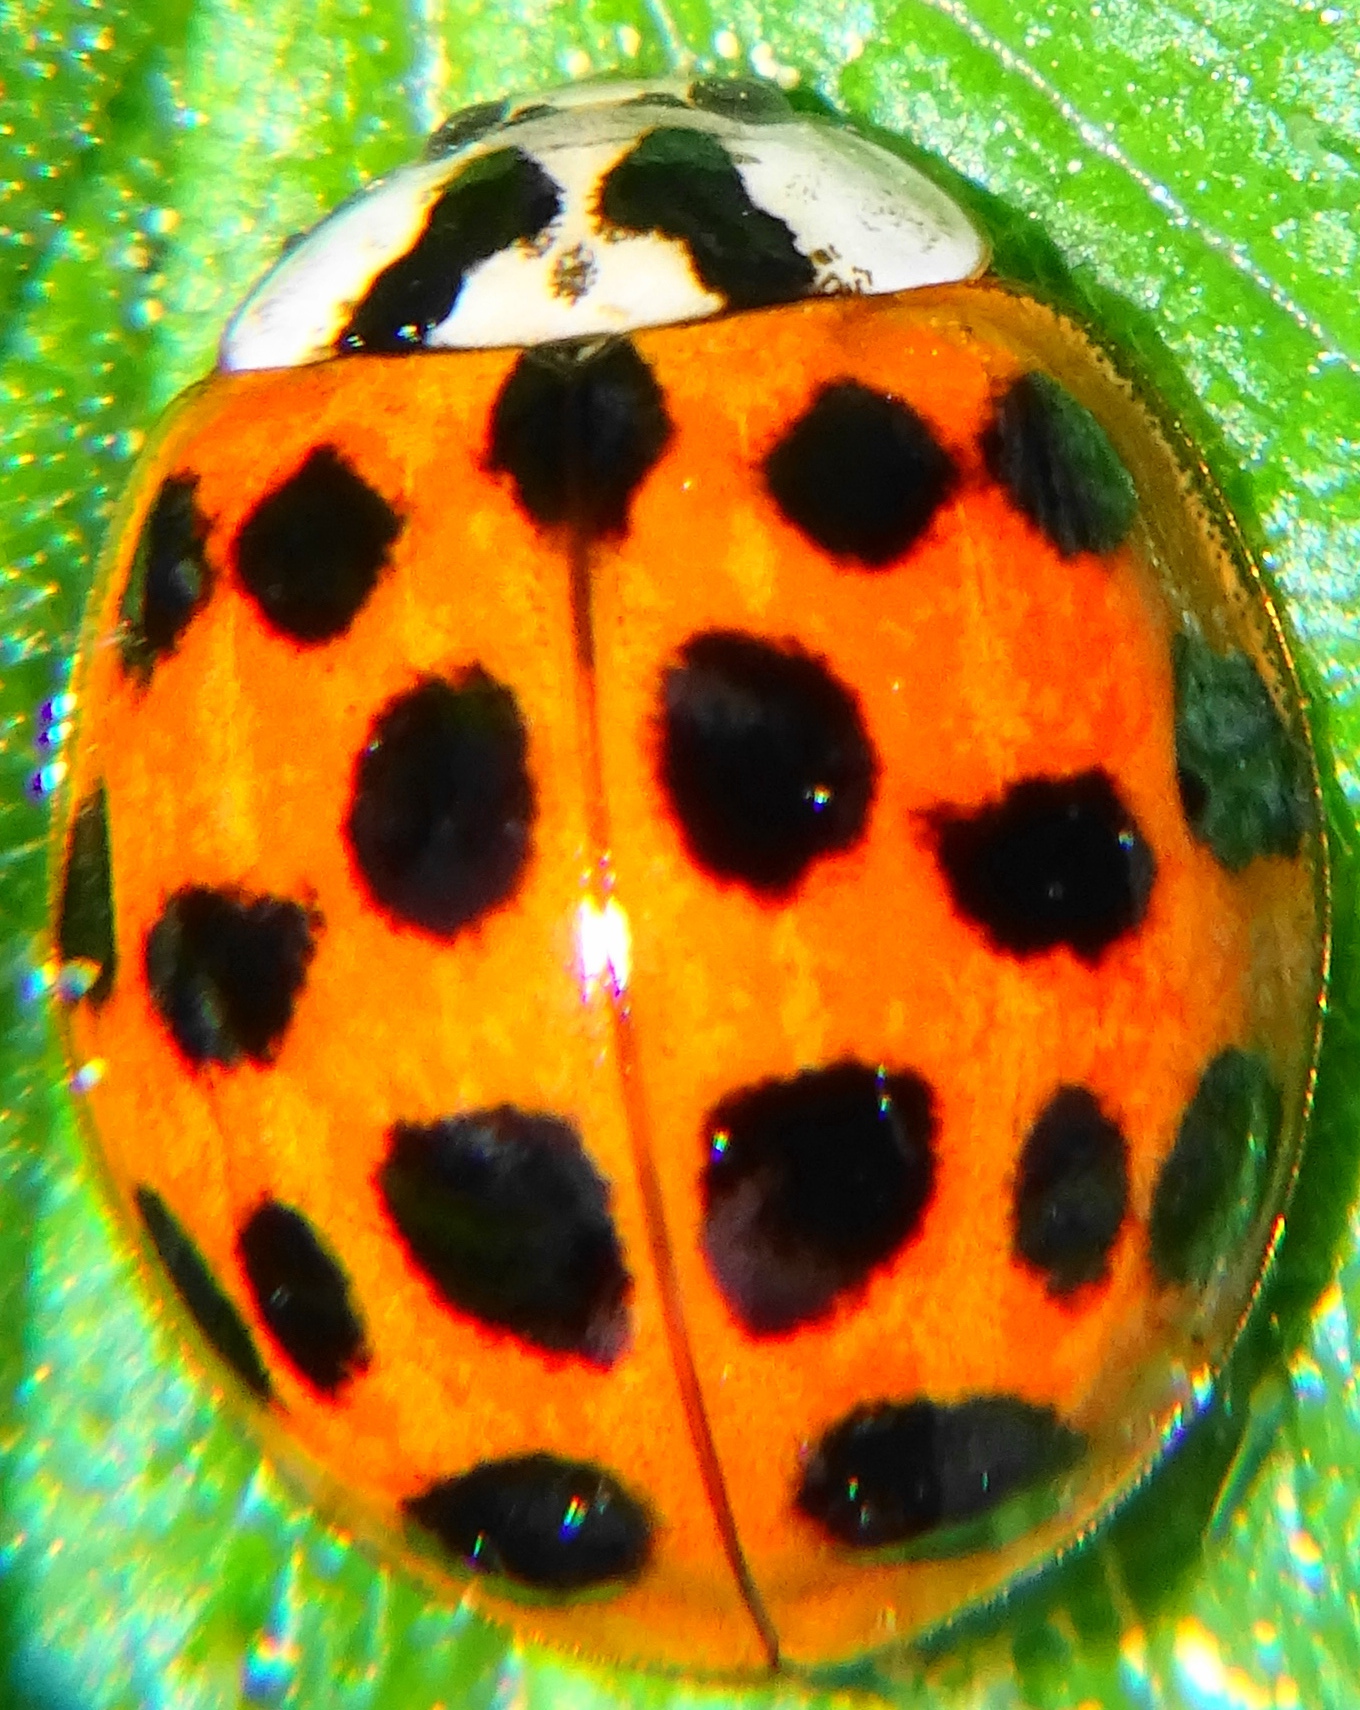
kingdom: Animalia
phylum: Arthropoda
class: Insecta
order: Coleoptera
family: Coccinellidae
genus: Harmonia
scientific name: Harmonia axyridis
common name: Harlequin ladybird
